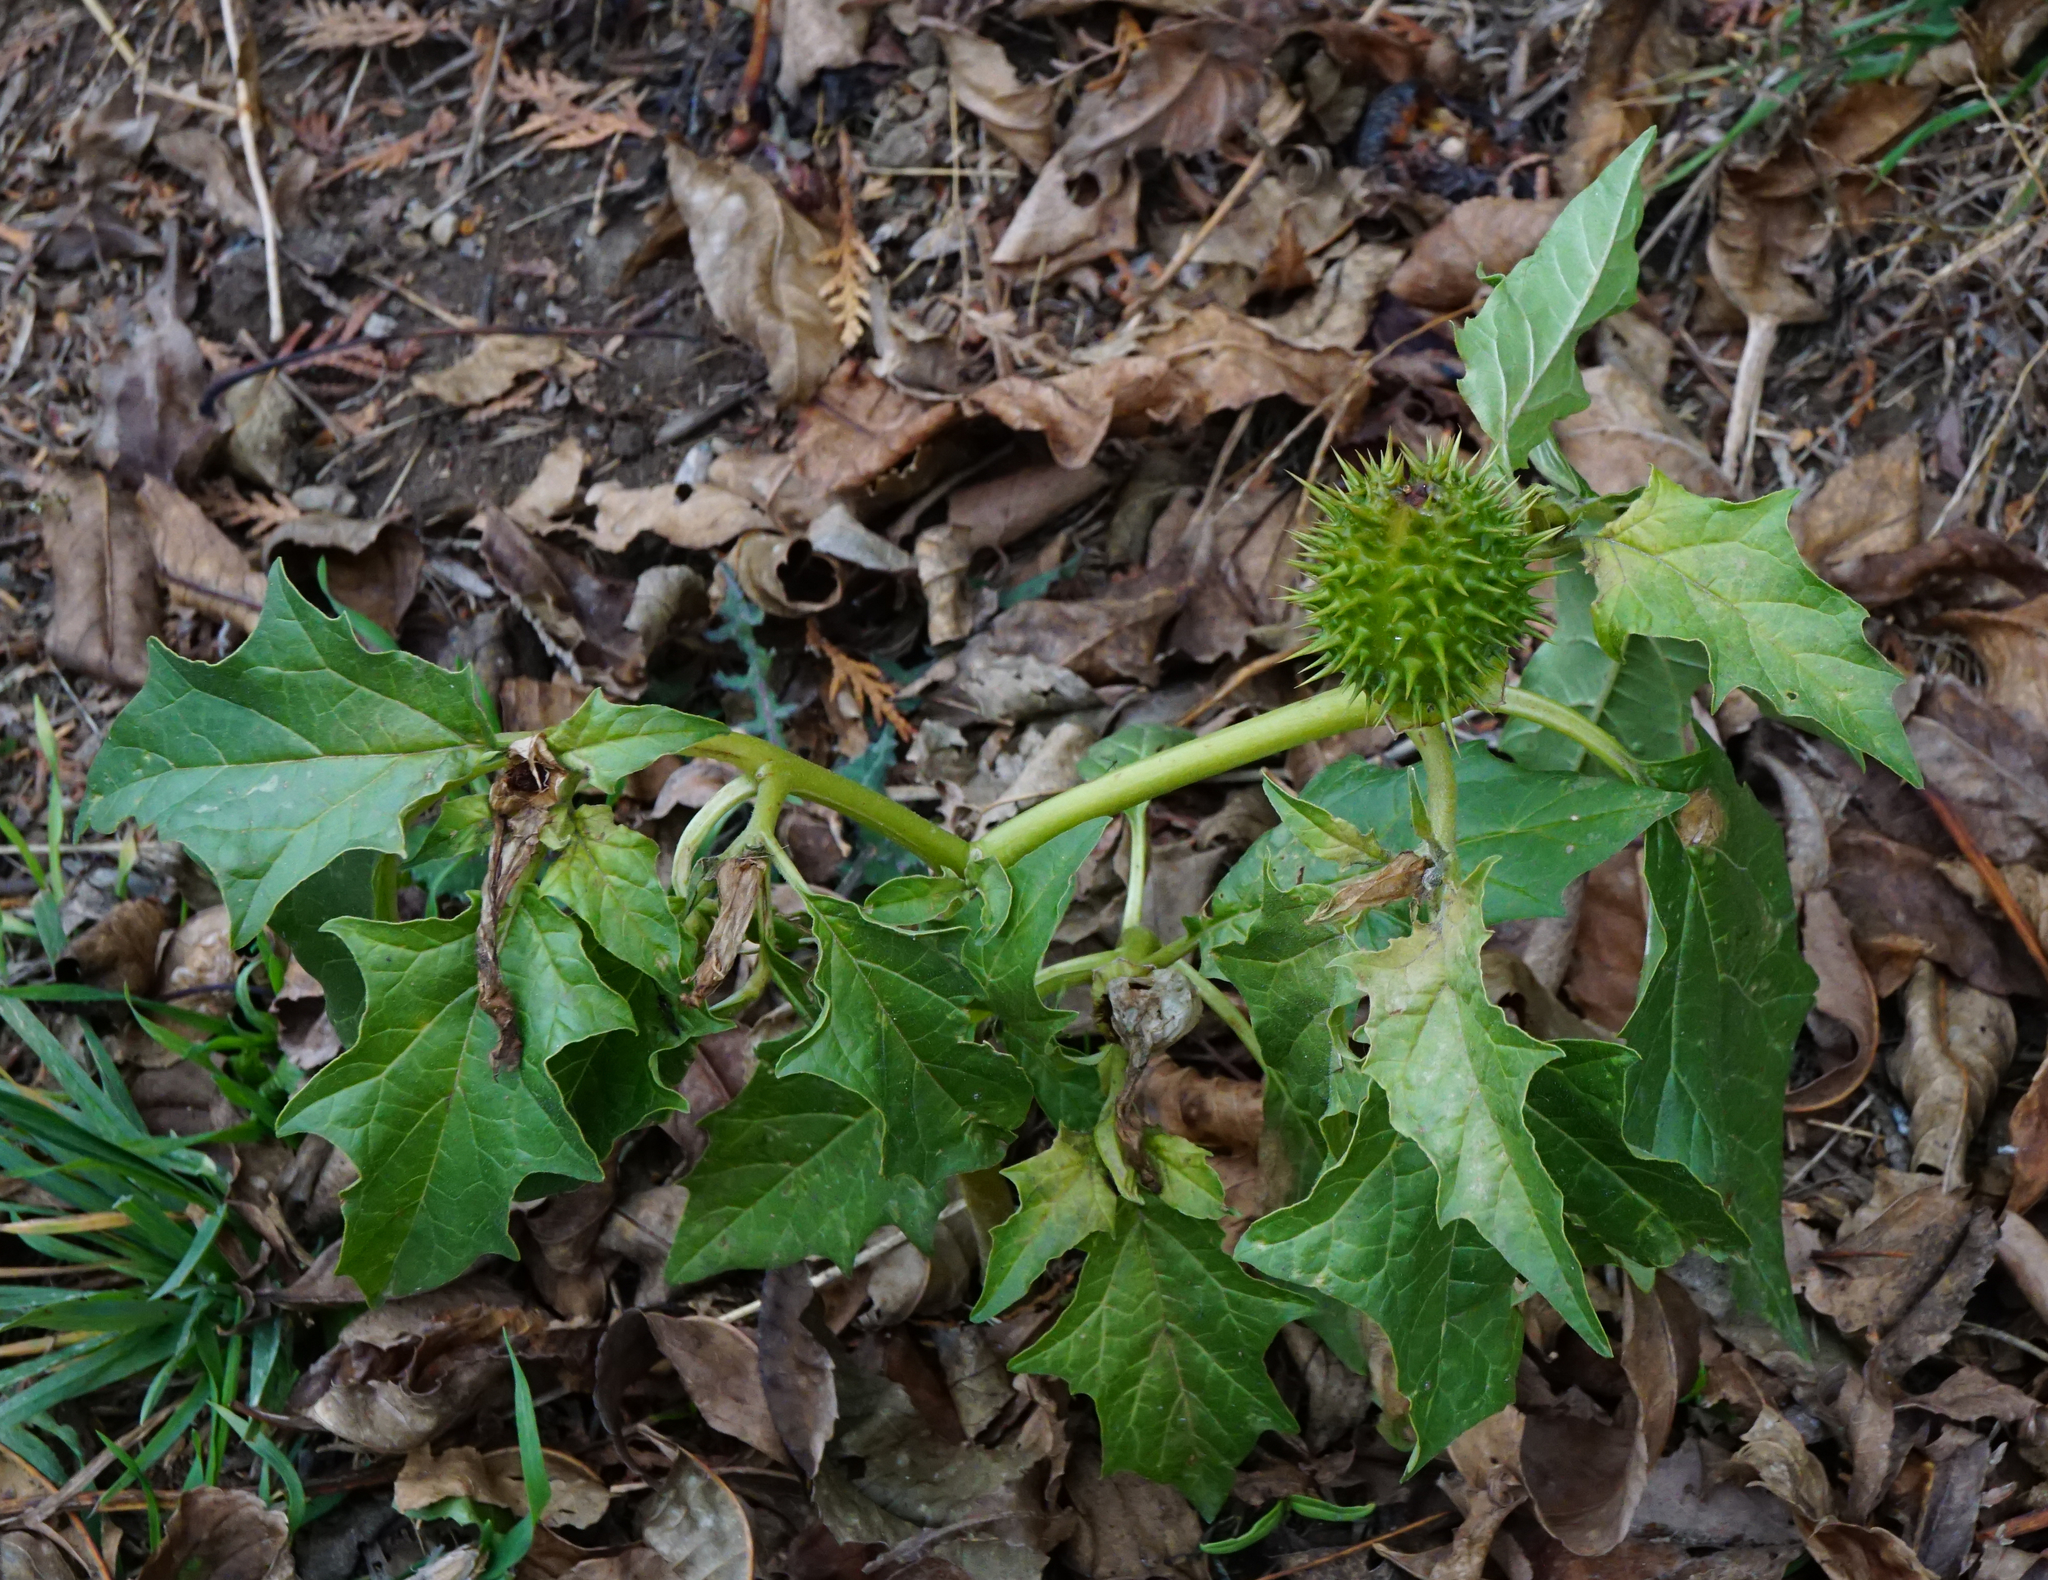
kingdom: Plantae
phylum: Tracheophyta
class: Magnoliopsida
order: Solanales
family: Solanaceae
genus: Datura
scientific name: Datura stramonium
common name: Thorn-apple
